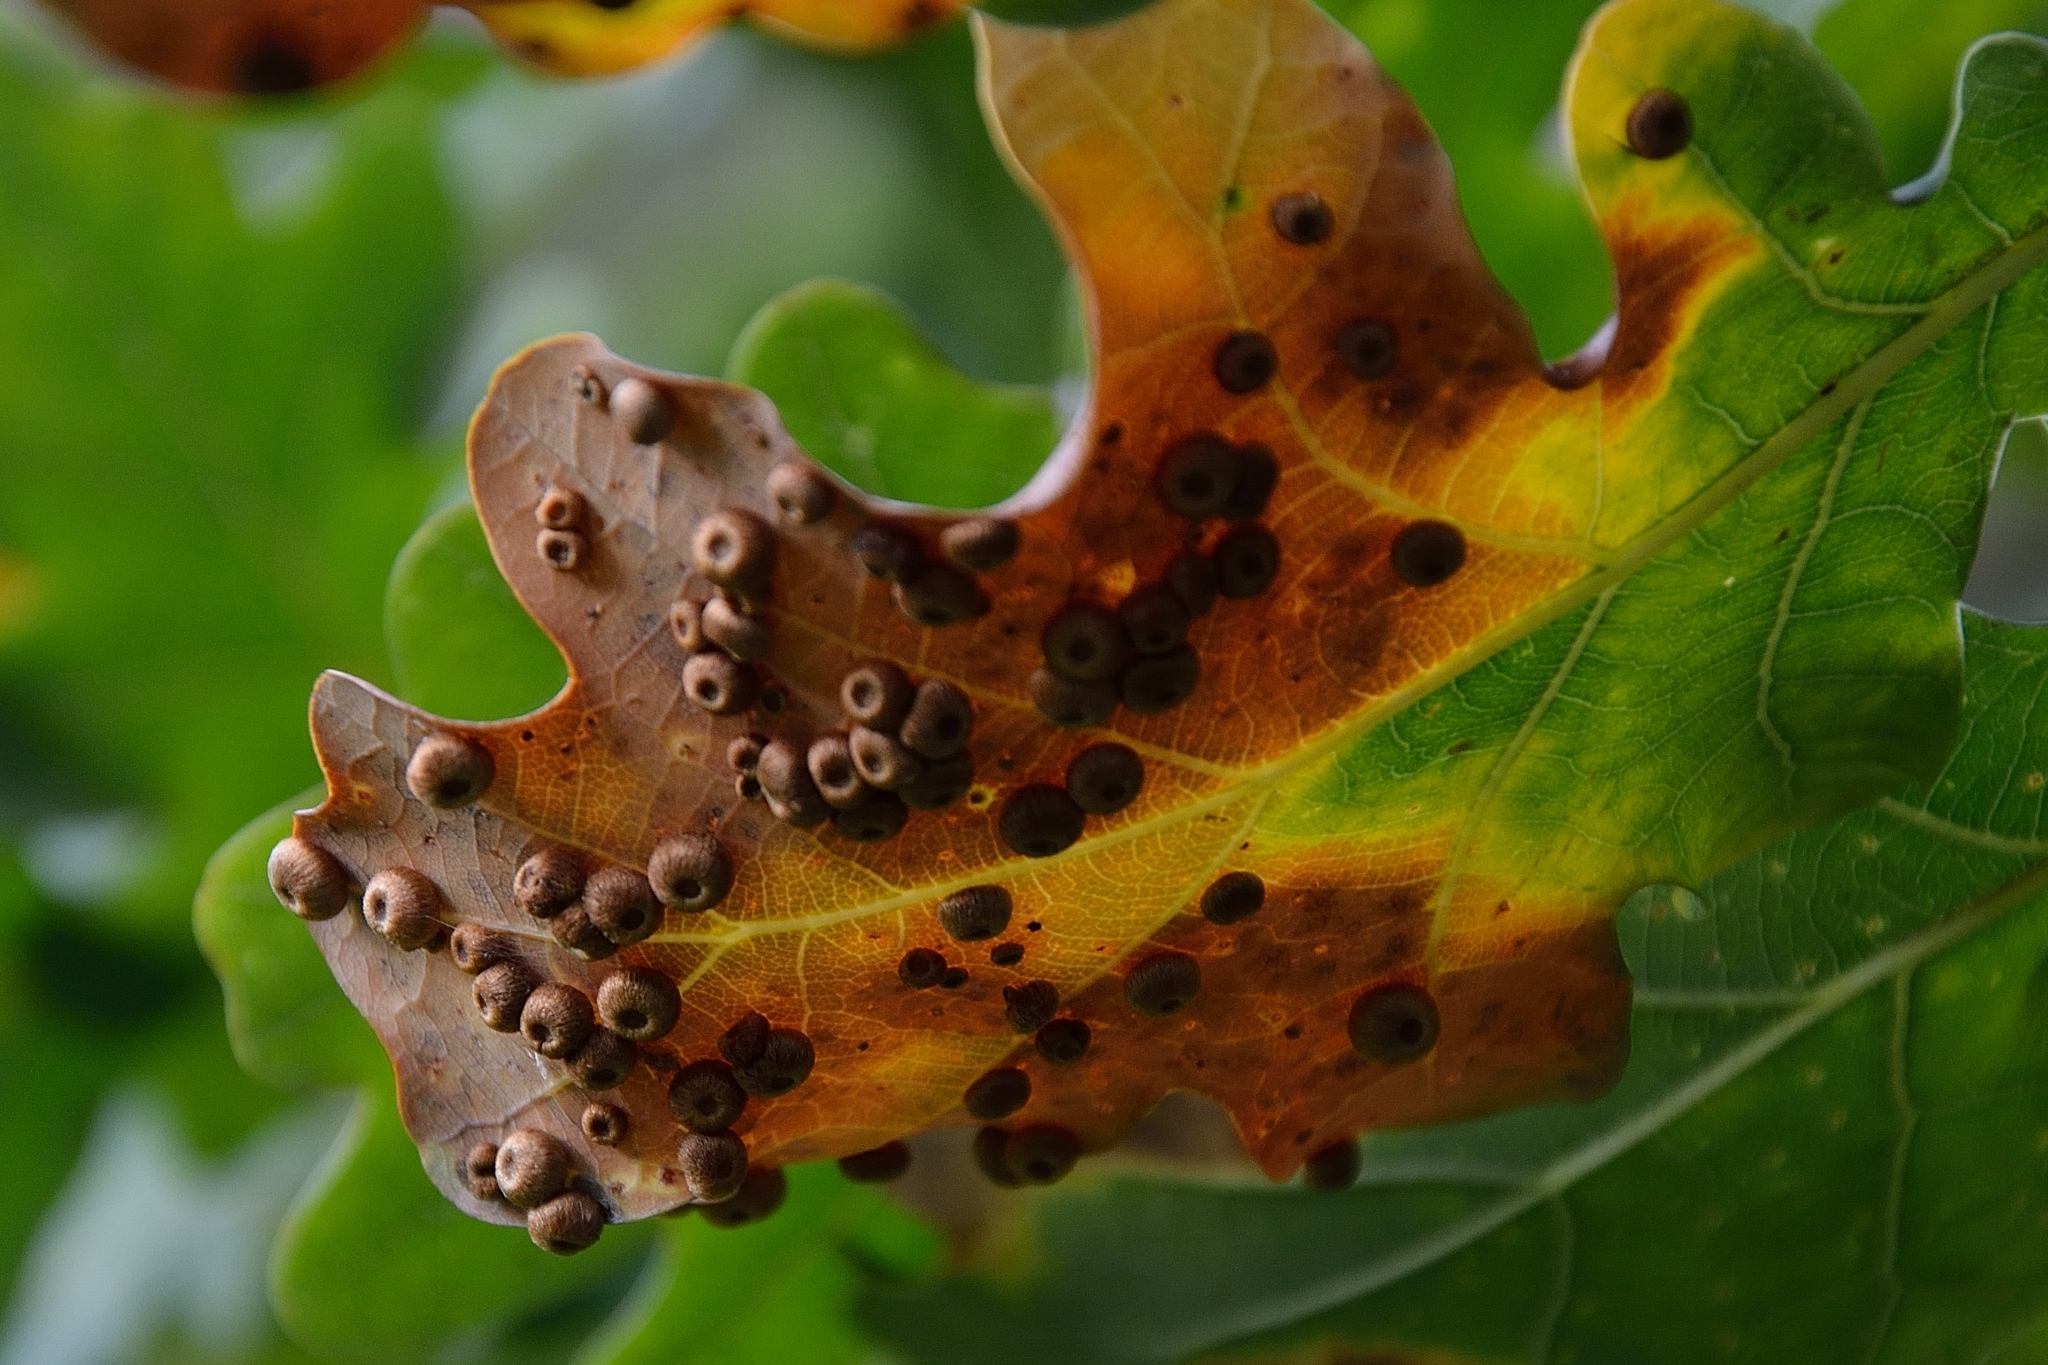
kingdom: Animalia
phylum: Arthropoda
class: Insecta
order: Hymenoptera
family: Cynipidae
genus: Neuroterus
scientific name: Neuroterus numismalis
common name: Silk-button spangle gall
